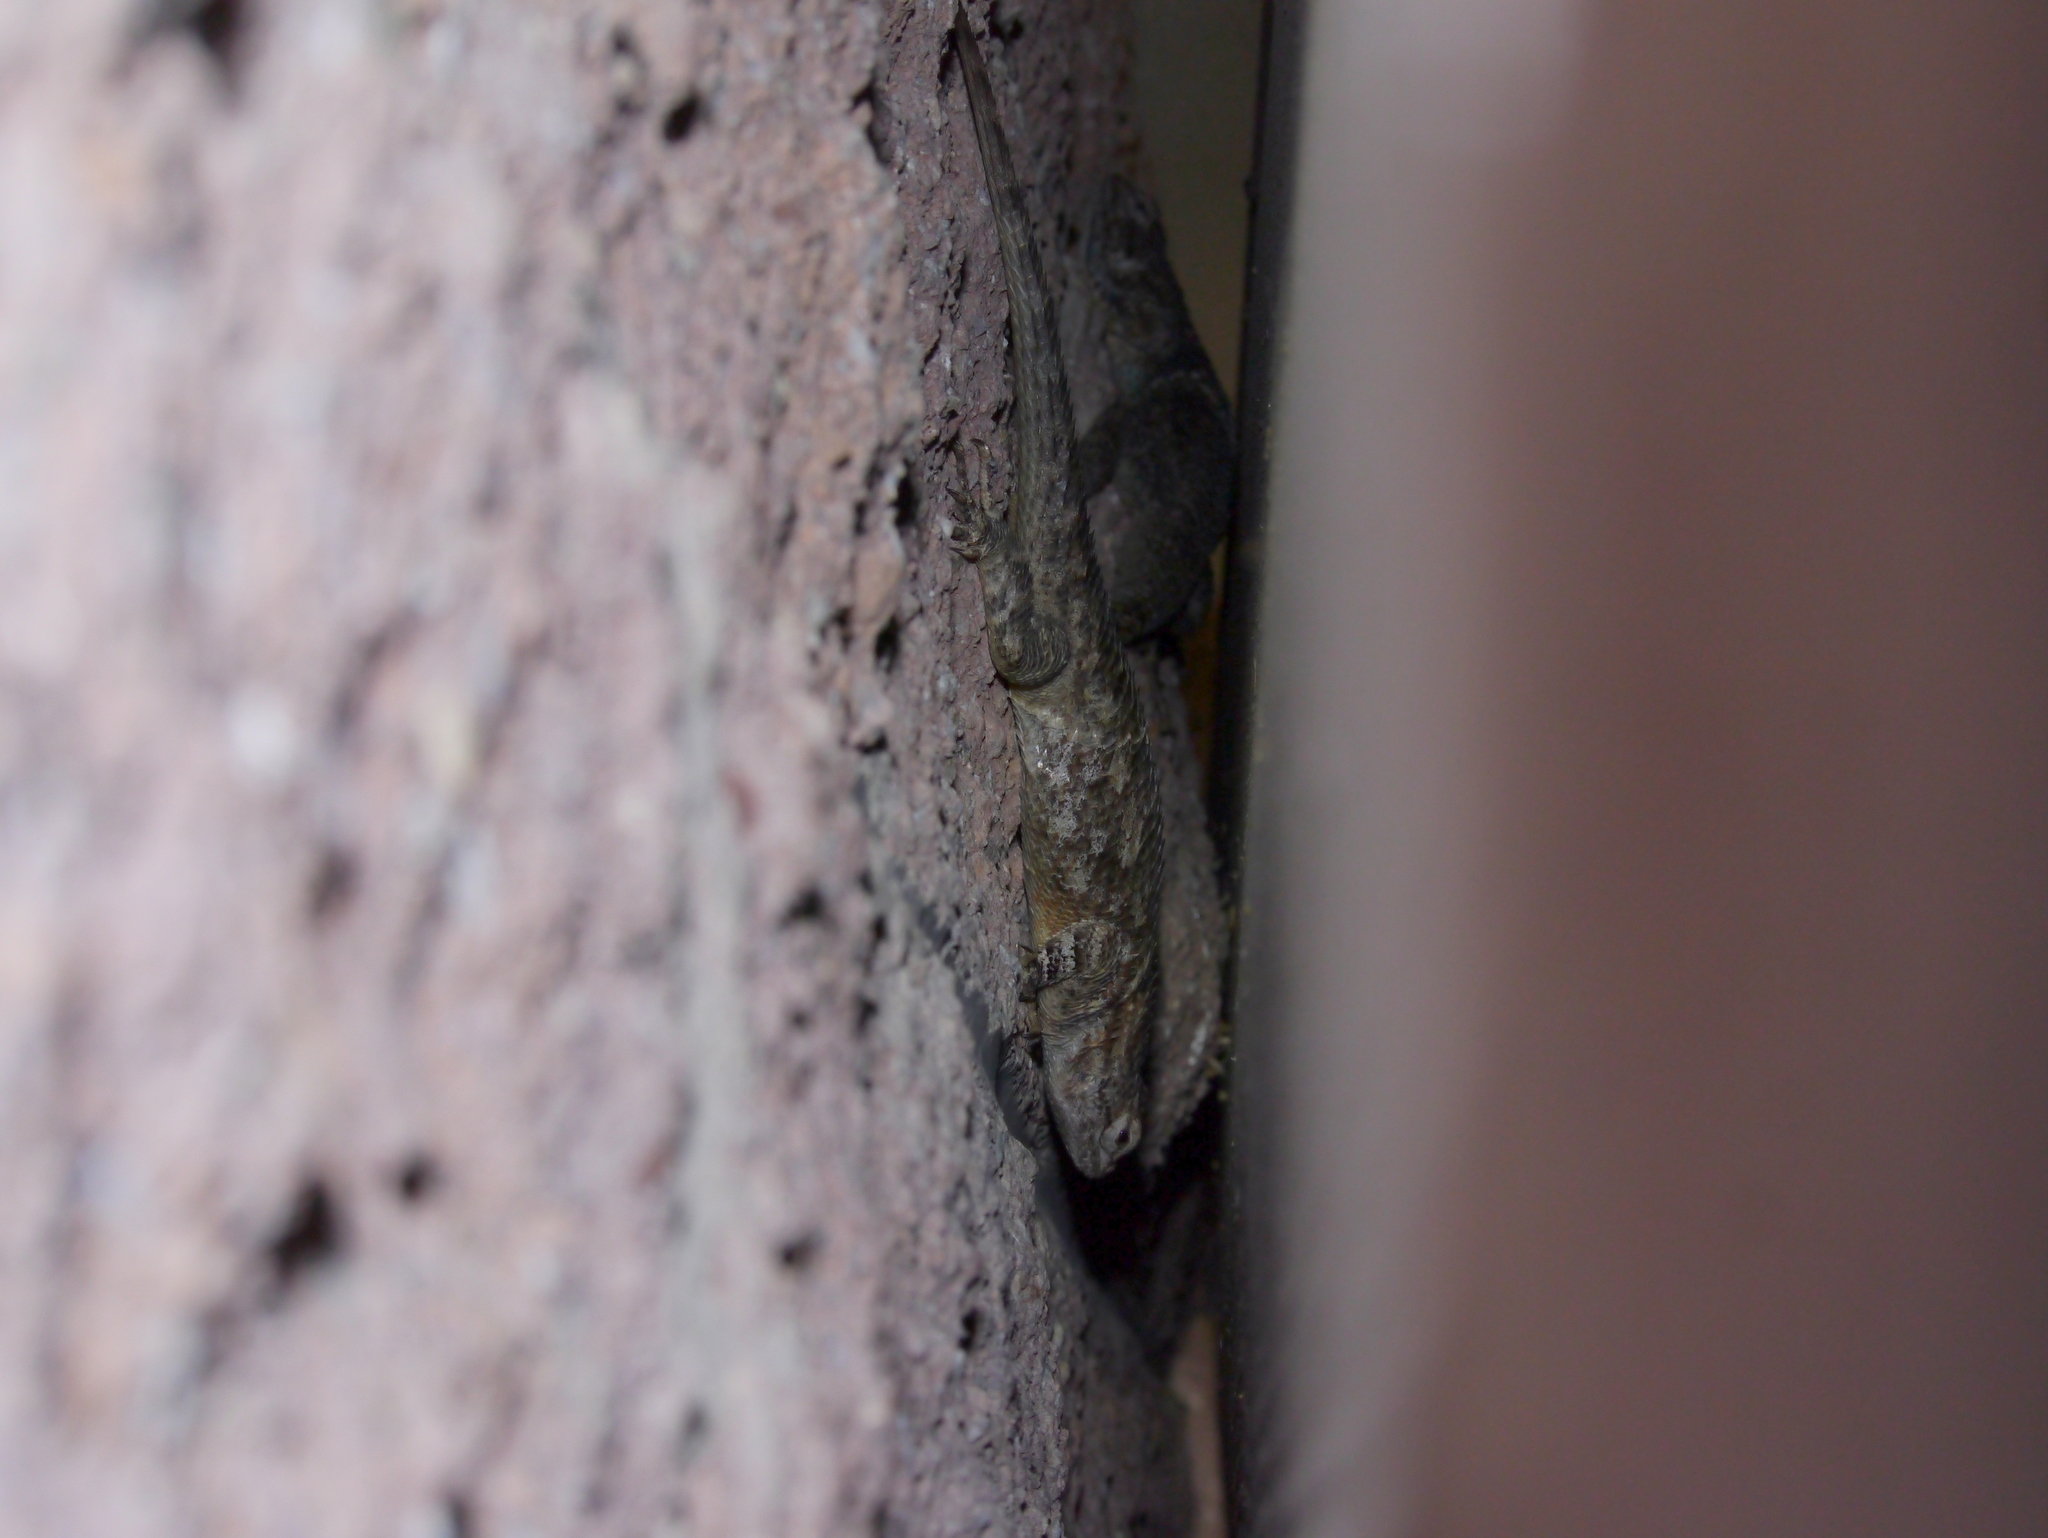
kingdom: Animalia
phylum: Chordata
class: Squamata
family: Phrynosomatidae
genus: Sceloporus
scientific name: Sceloporus clarkii
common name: Clark's spiny lizard
